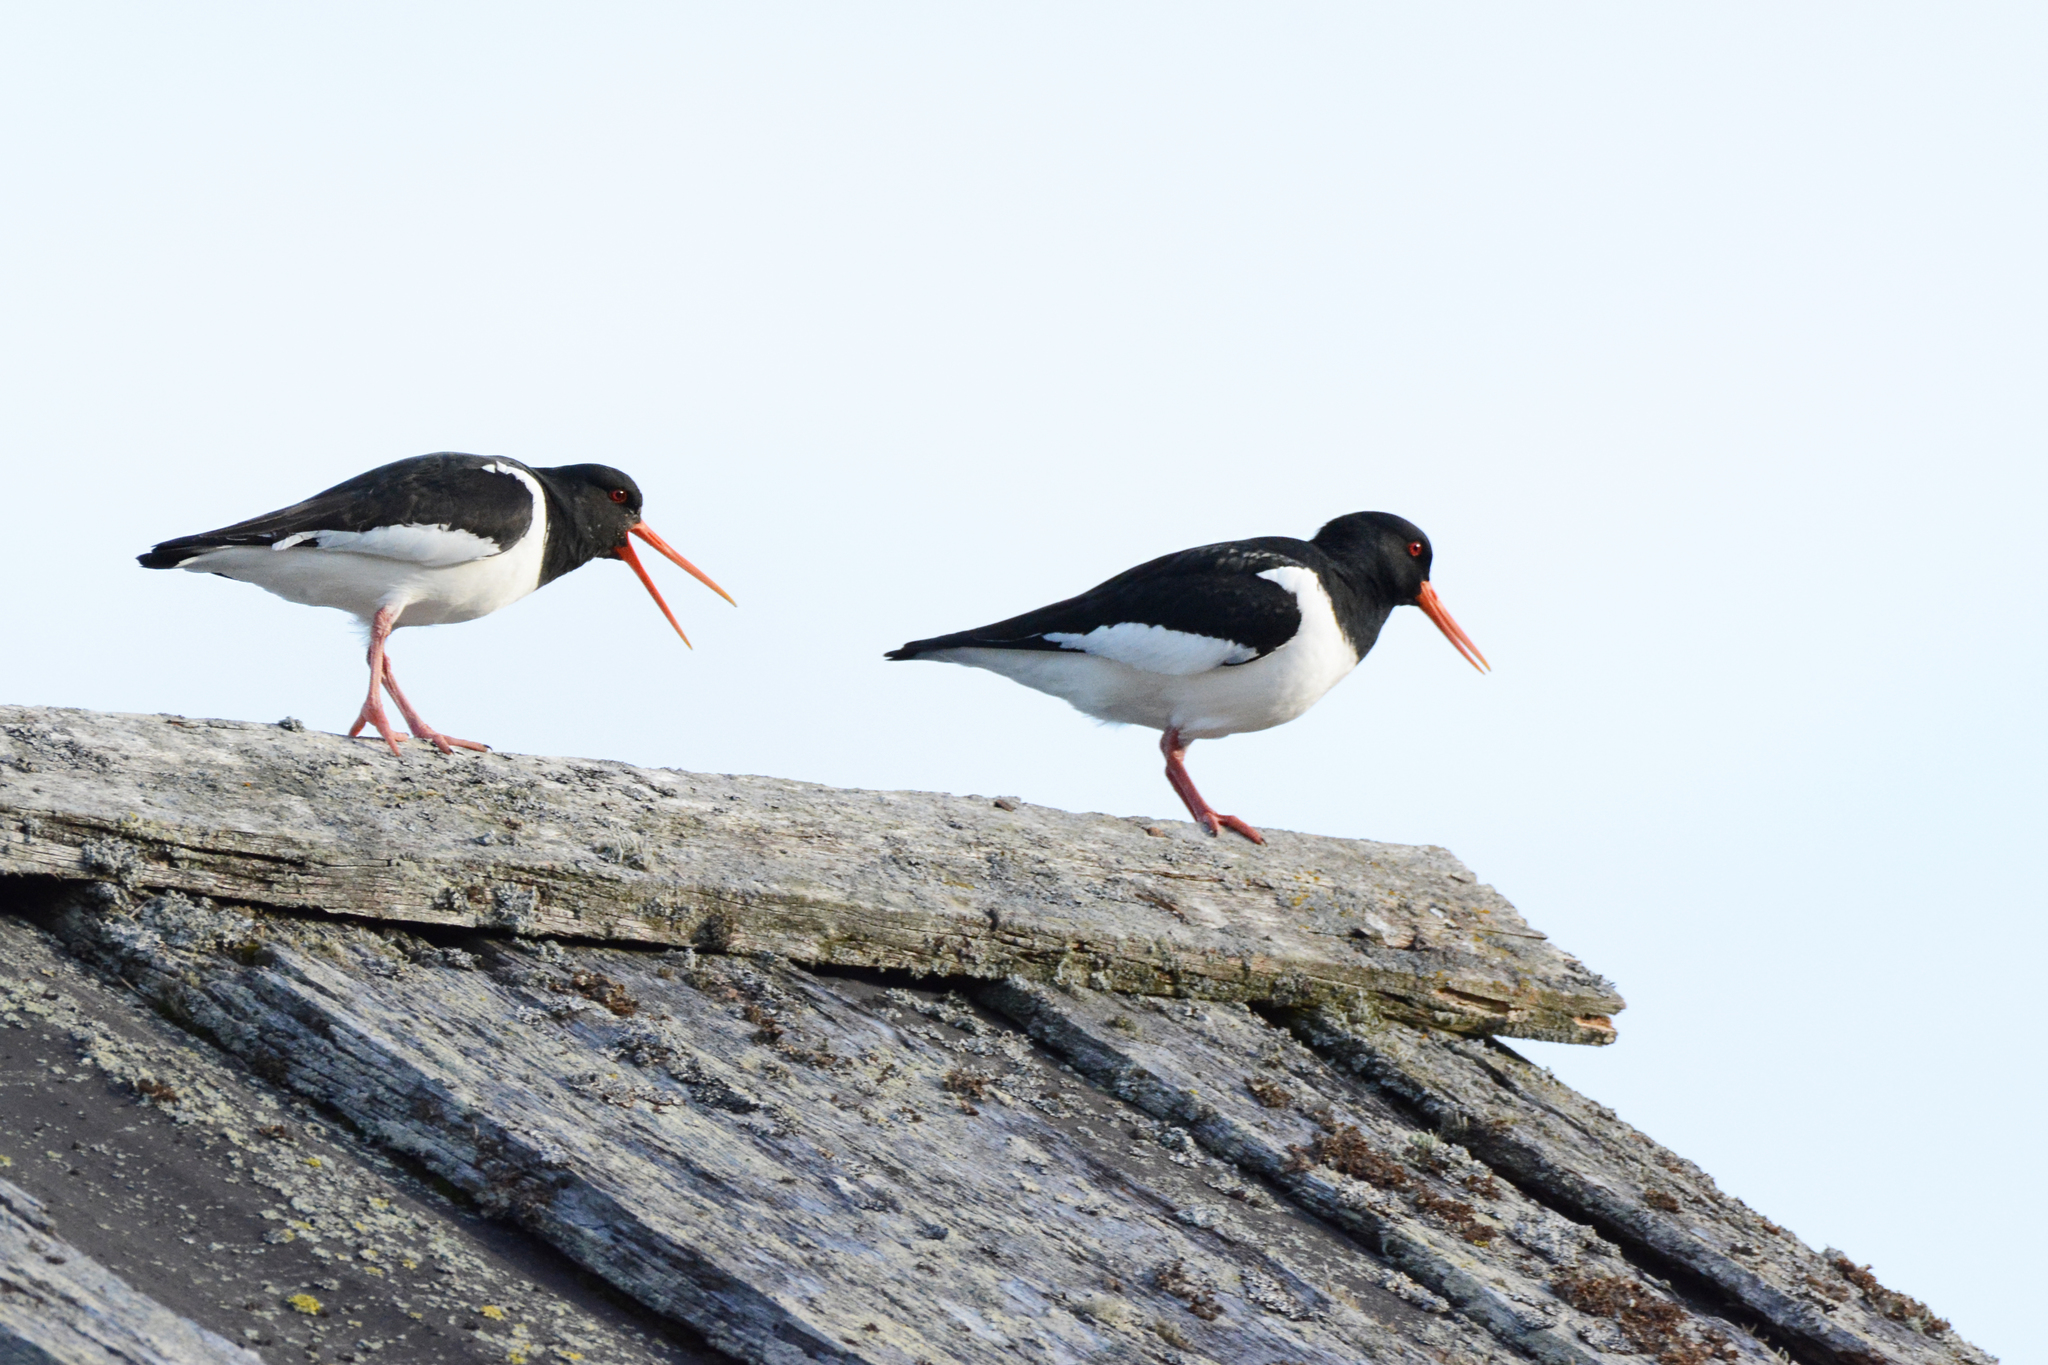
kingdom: Animalia
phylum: Chordata
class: Aves
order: Charadriiformes
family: Haematopodidae
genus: Haematopus
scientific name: Haematopus ostralegus
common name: Eurasian oystercatcher
